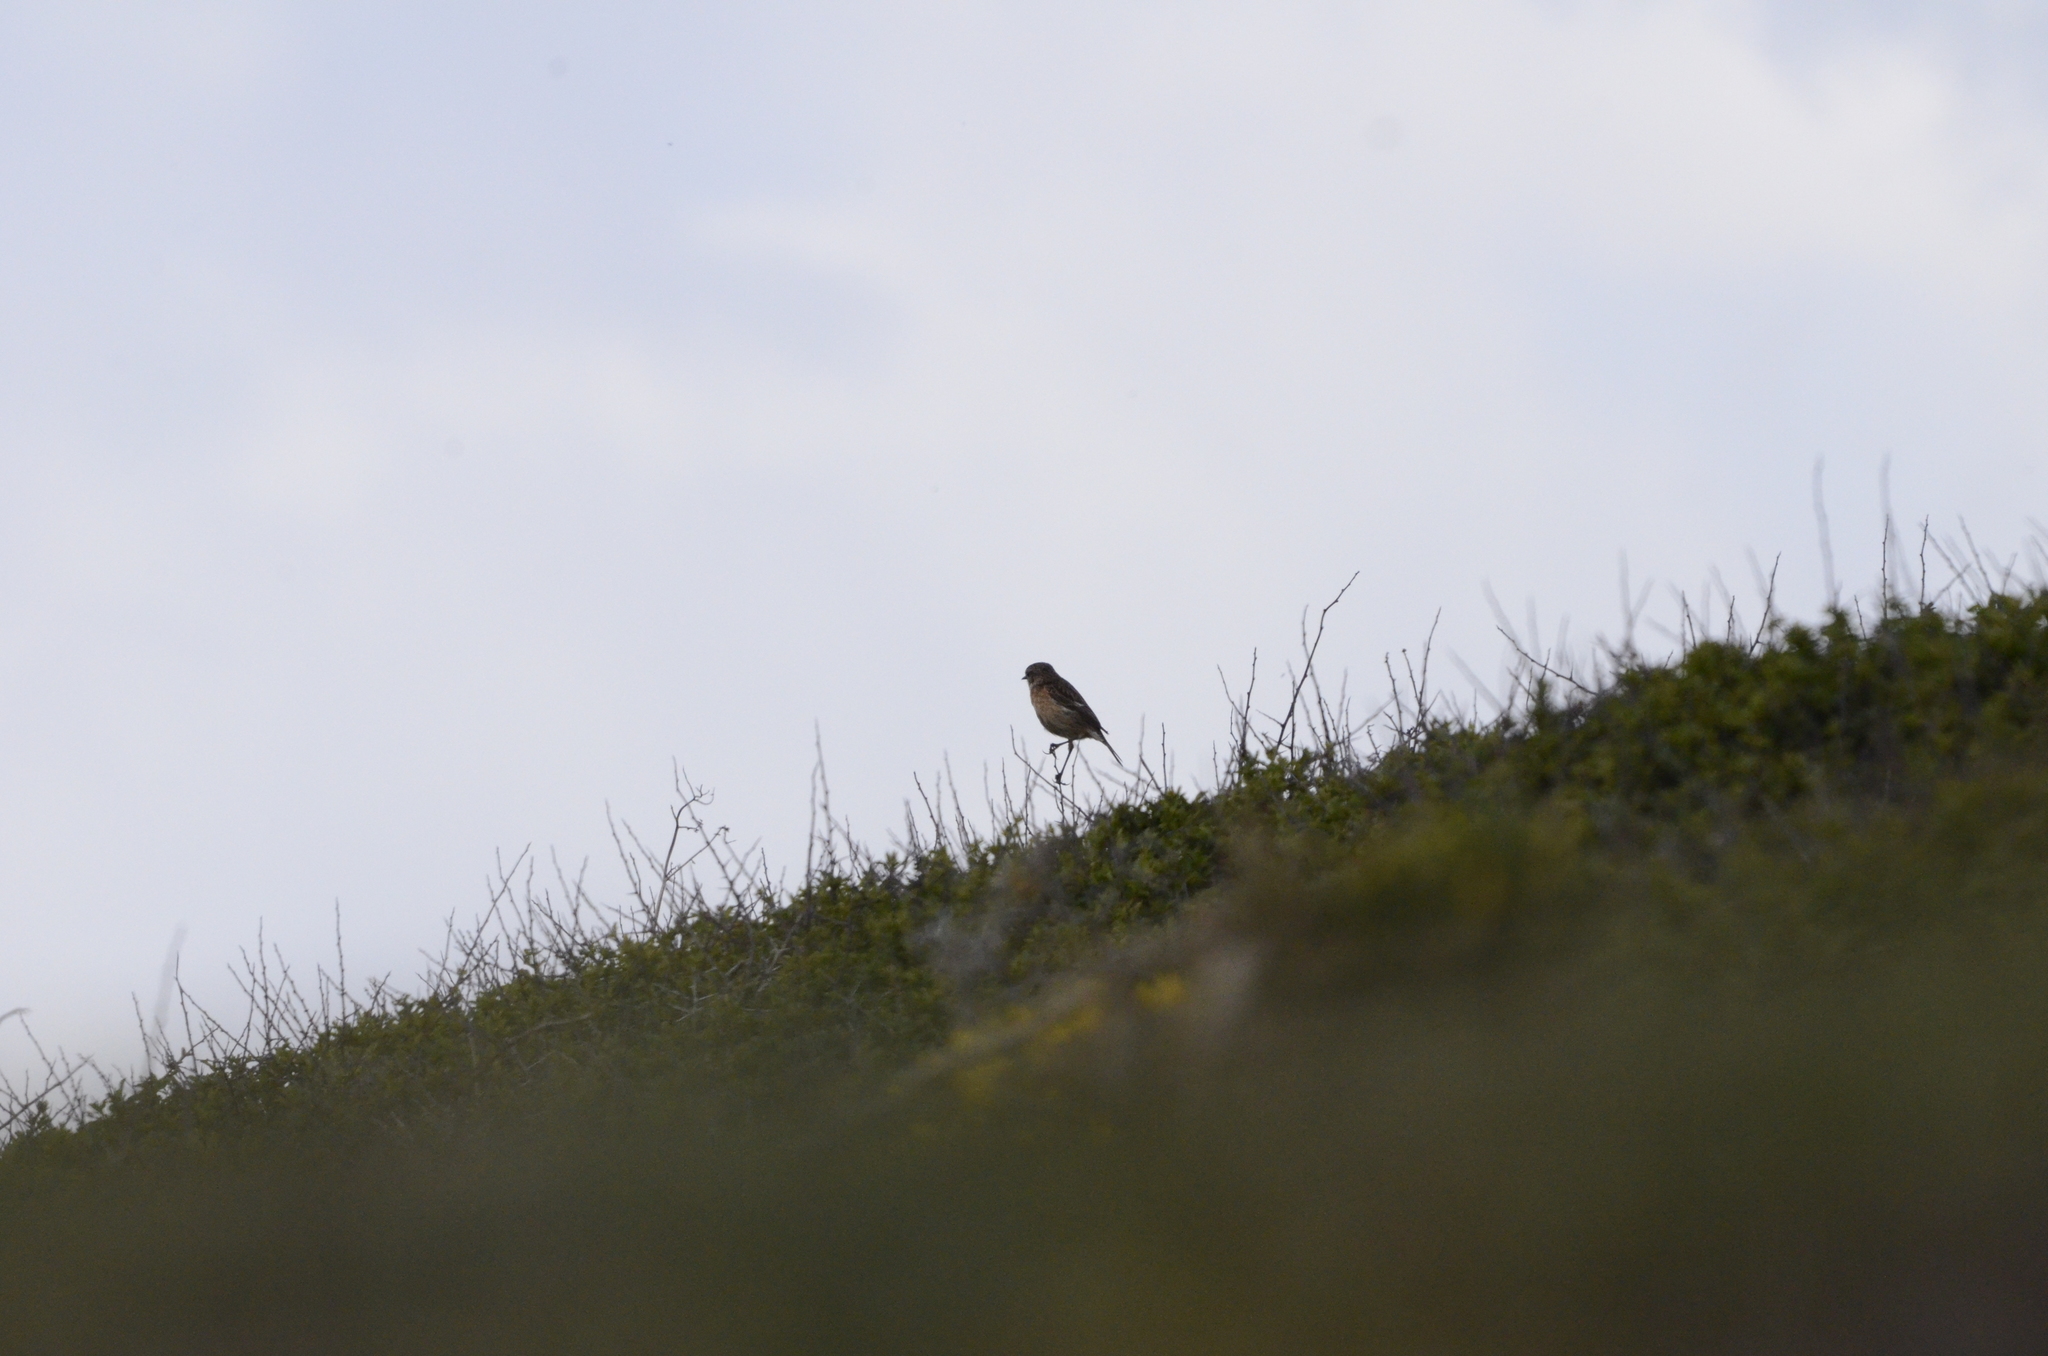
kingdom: Animalia
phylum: Chordata
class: Aves
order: Passeriformes
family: Muscicapidae
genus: Saxicola
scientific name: Saxicola rubicola
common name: European stonechat
